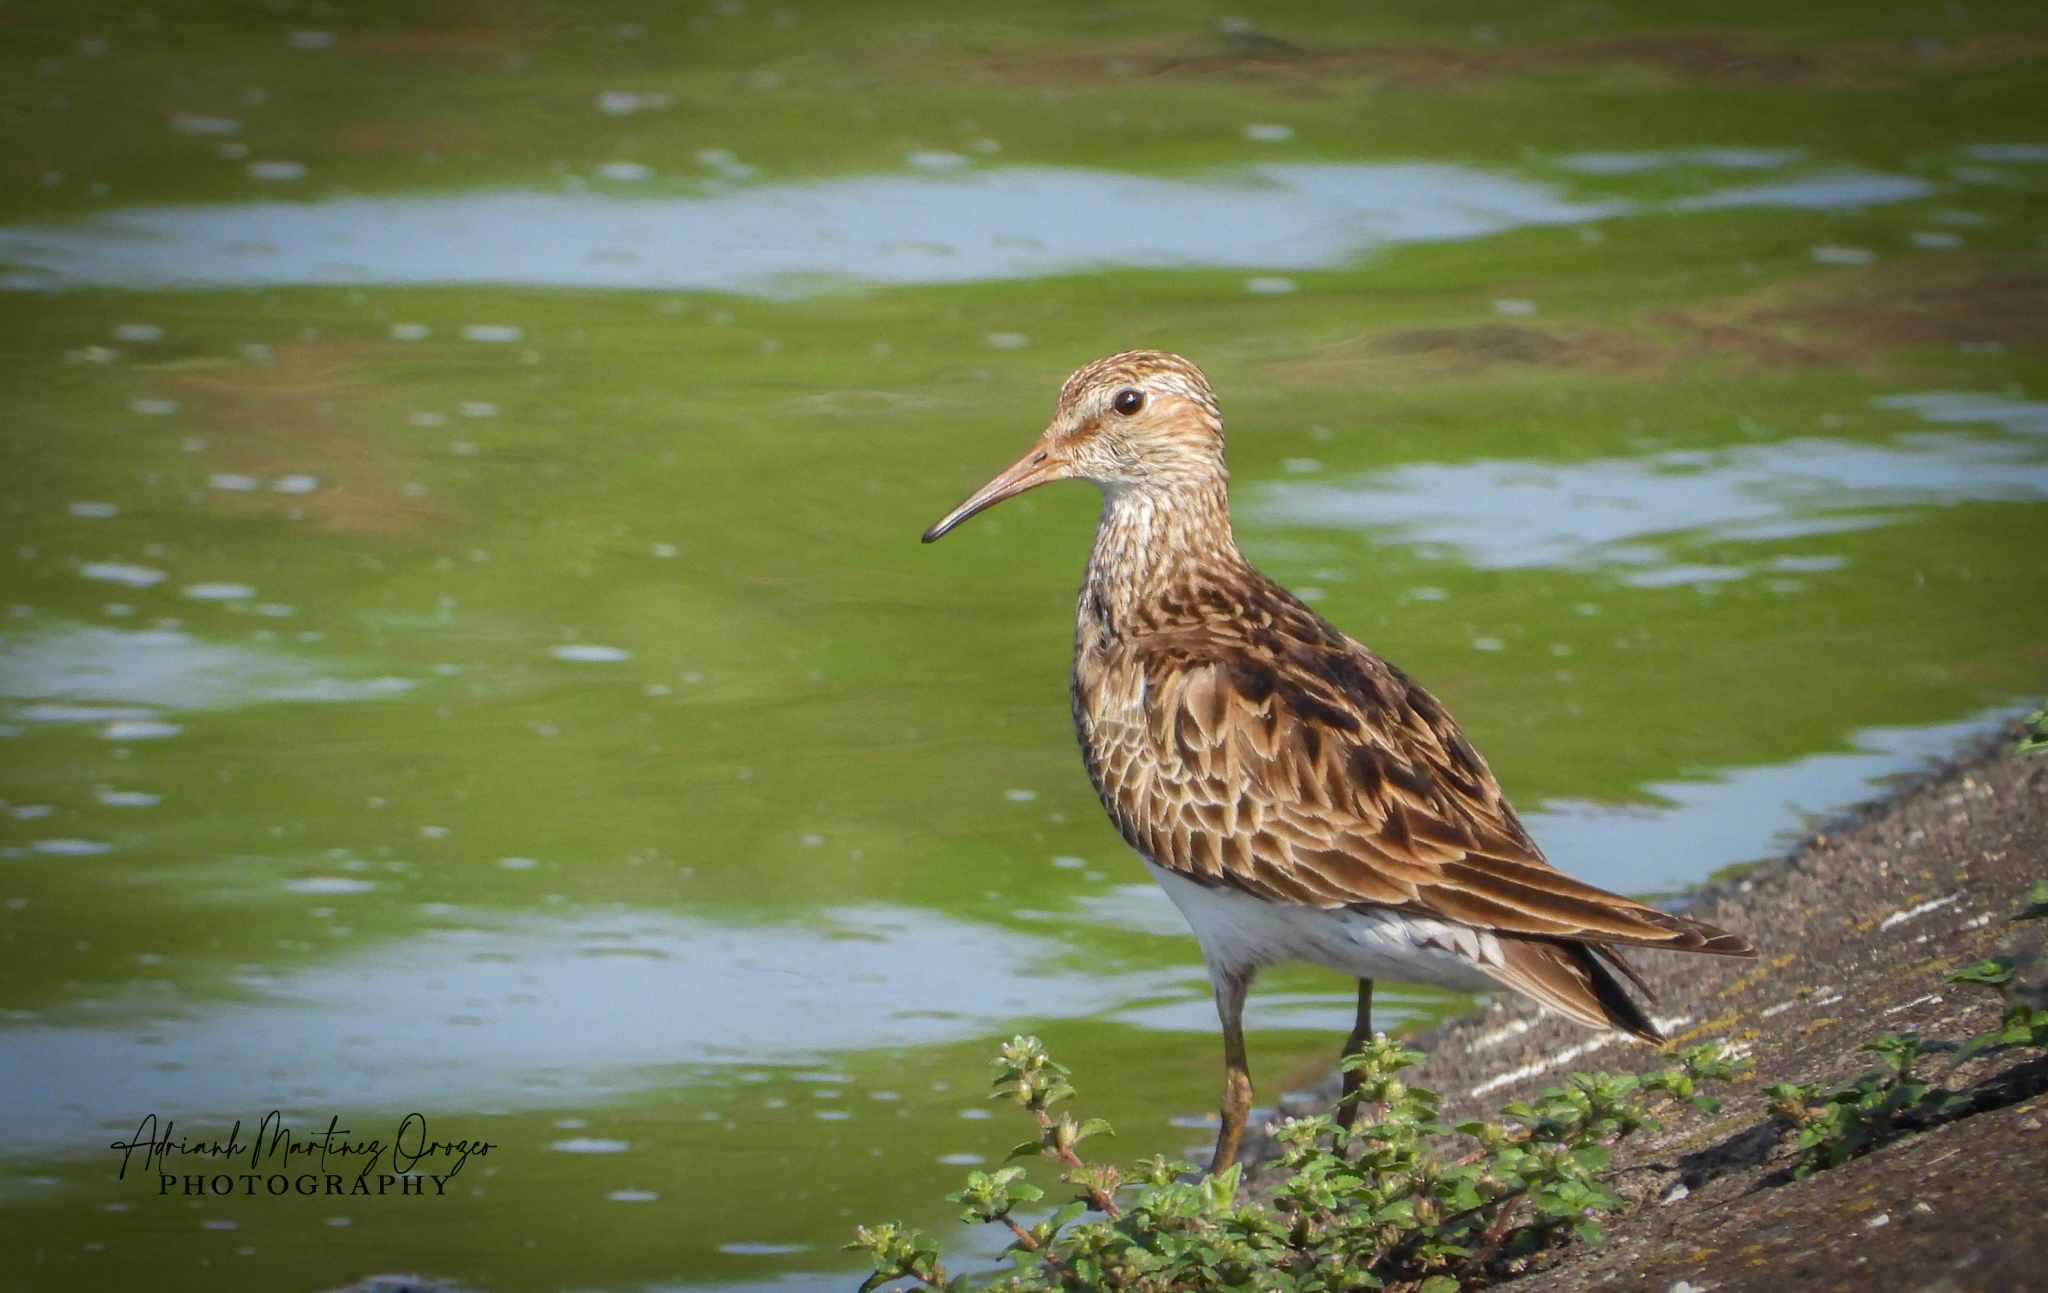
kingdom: Animalia
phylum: Chordata
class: Aves
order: Charadriiformes
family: Scolopacidae
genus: Calidris
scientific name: Calidris melanotos
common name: Pectoral sandpiper
